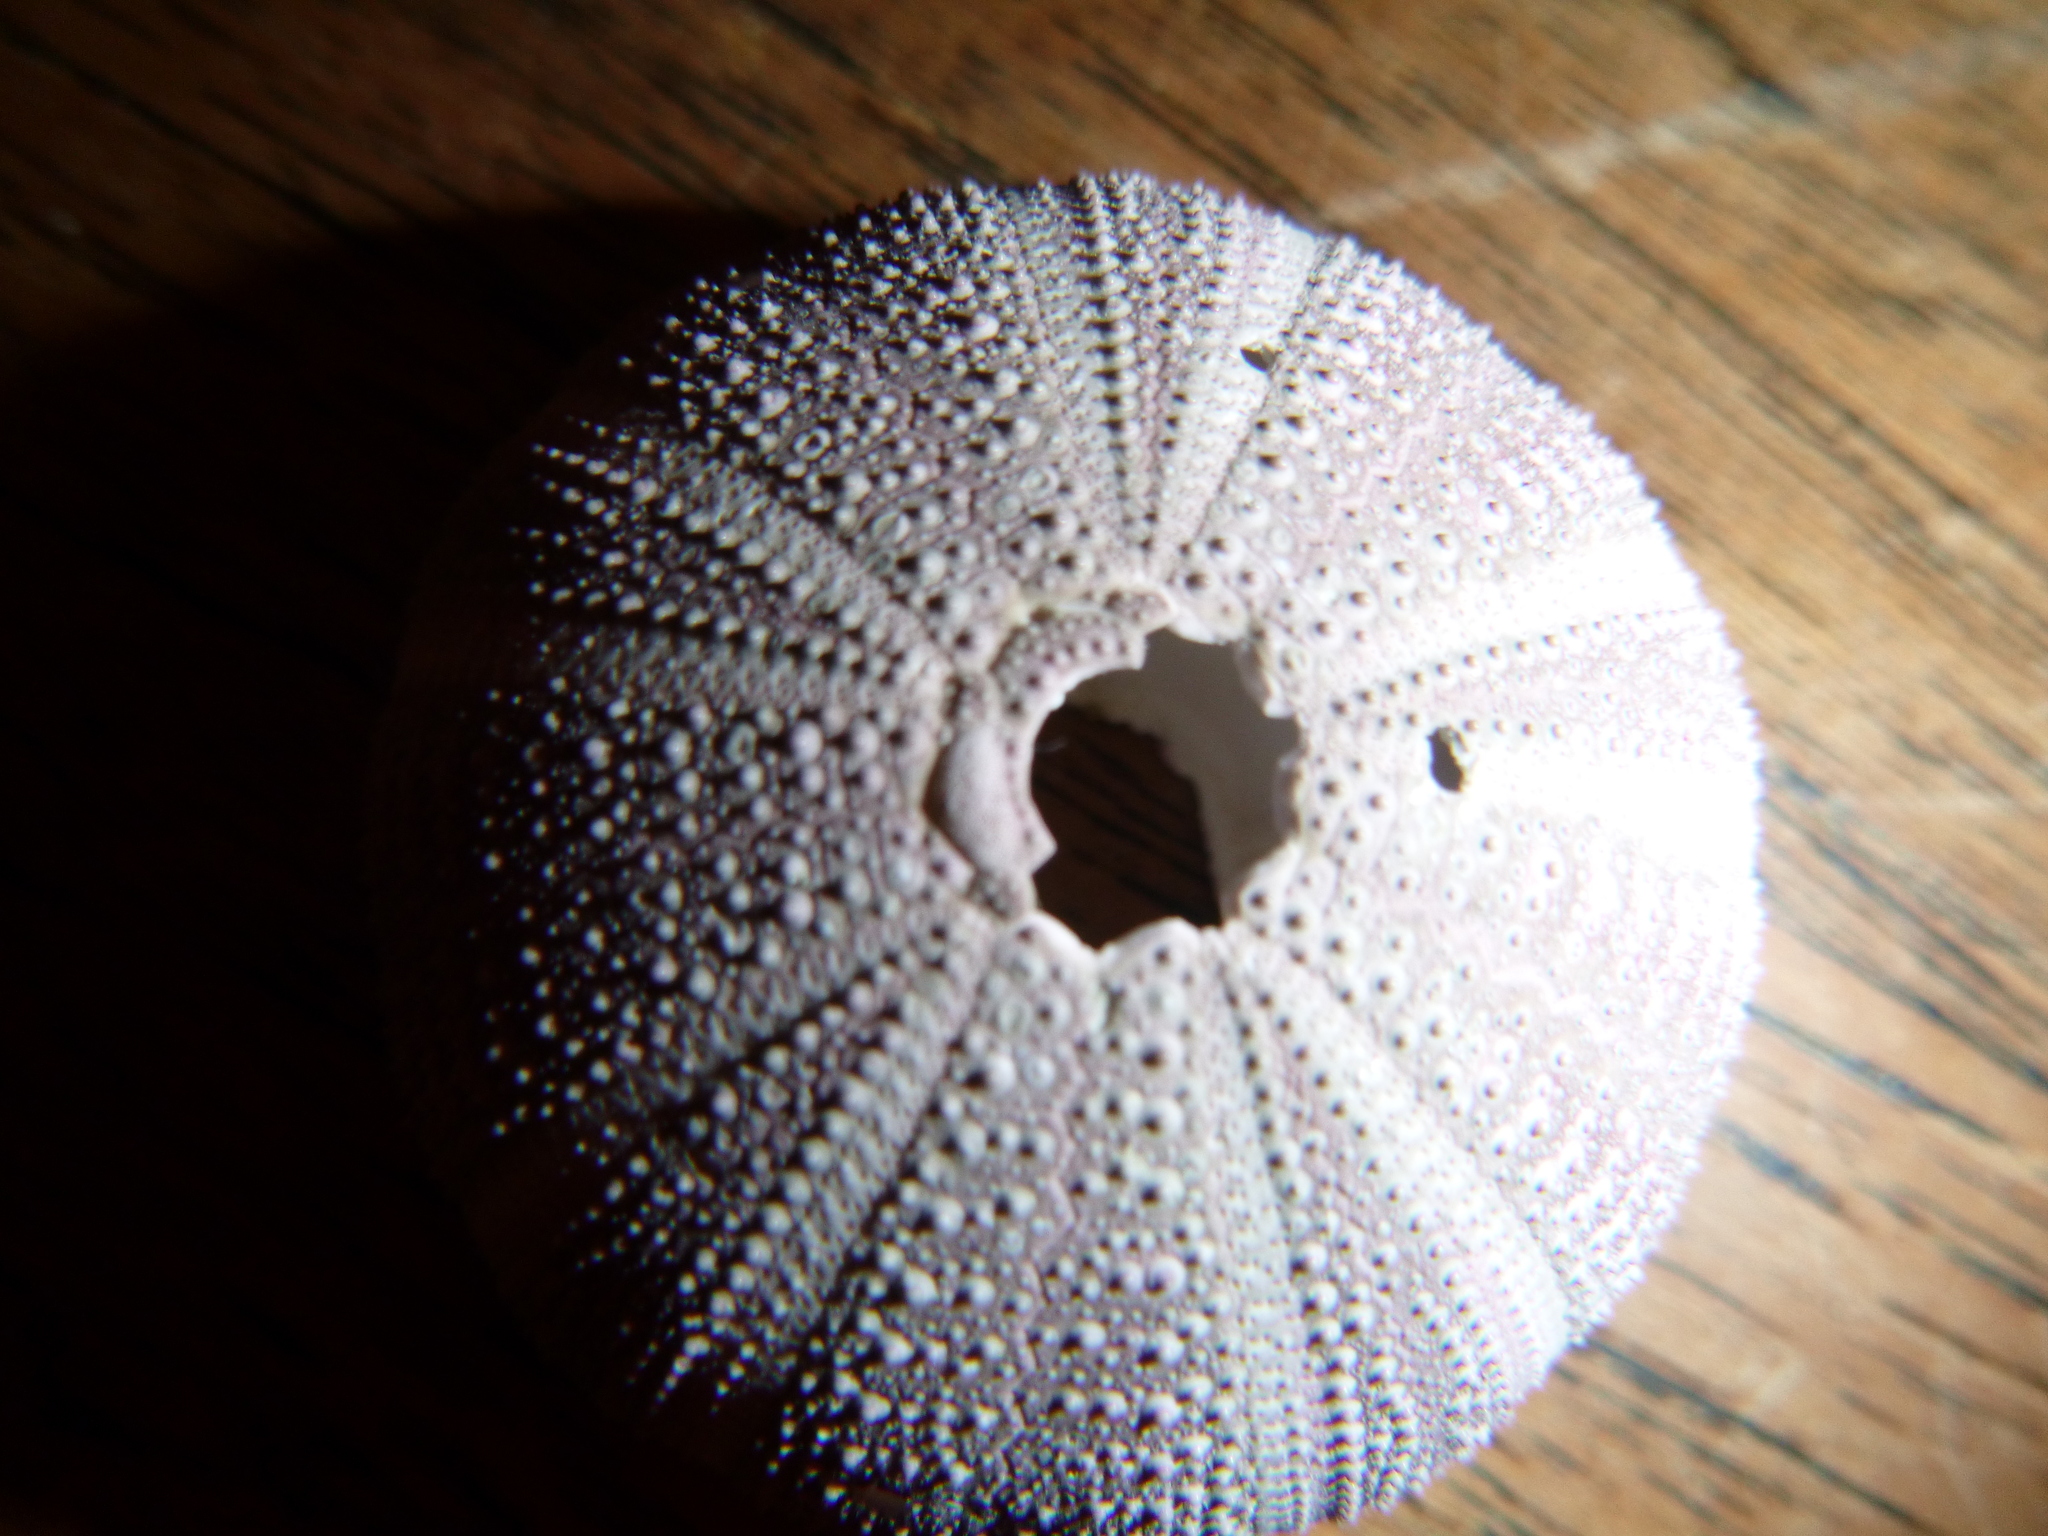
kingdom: Animalia
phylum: Echinodermata
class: Echinoidea
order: Camarodonta
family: Temnopleuridae
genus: Amblypneustes
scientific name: Amblypneustes elevatus
